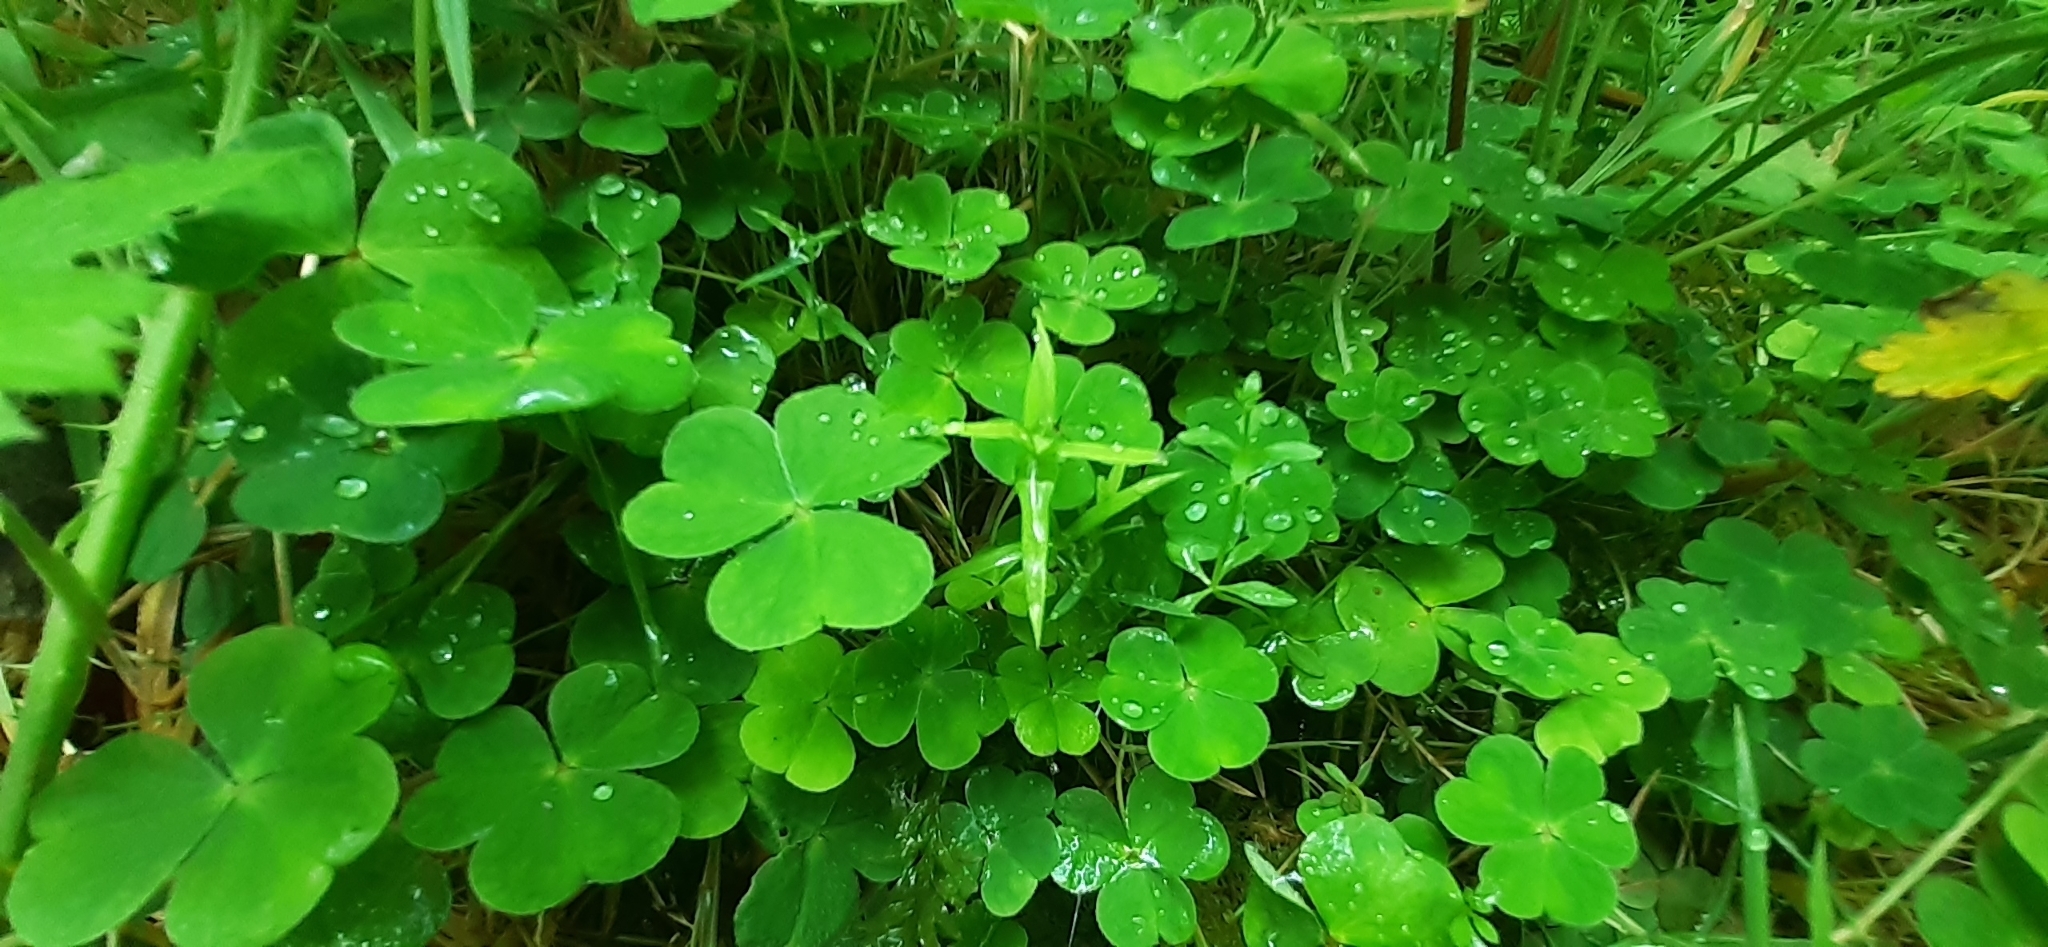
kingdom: Plantae
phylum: Tracheophyta
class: Magnoliopsida
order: Oxalidales
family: Oxalidaceae
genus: Oxalis
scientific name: Oxalis acetosella
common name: Wood-sorrel
